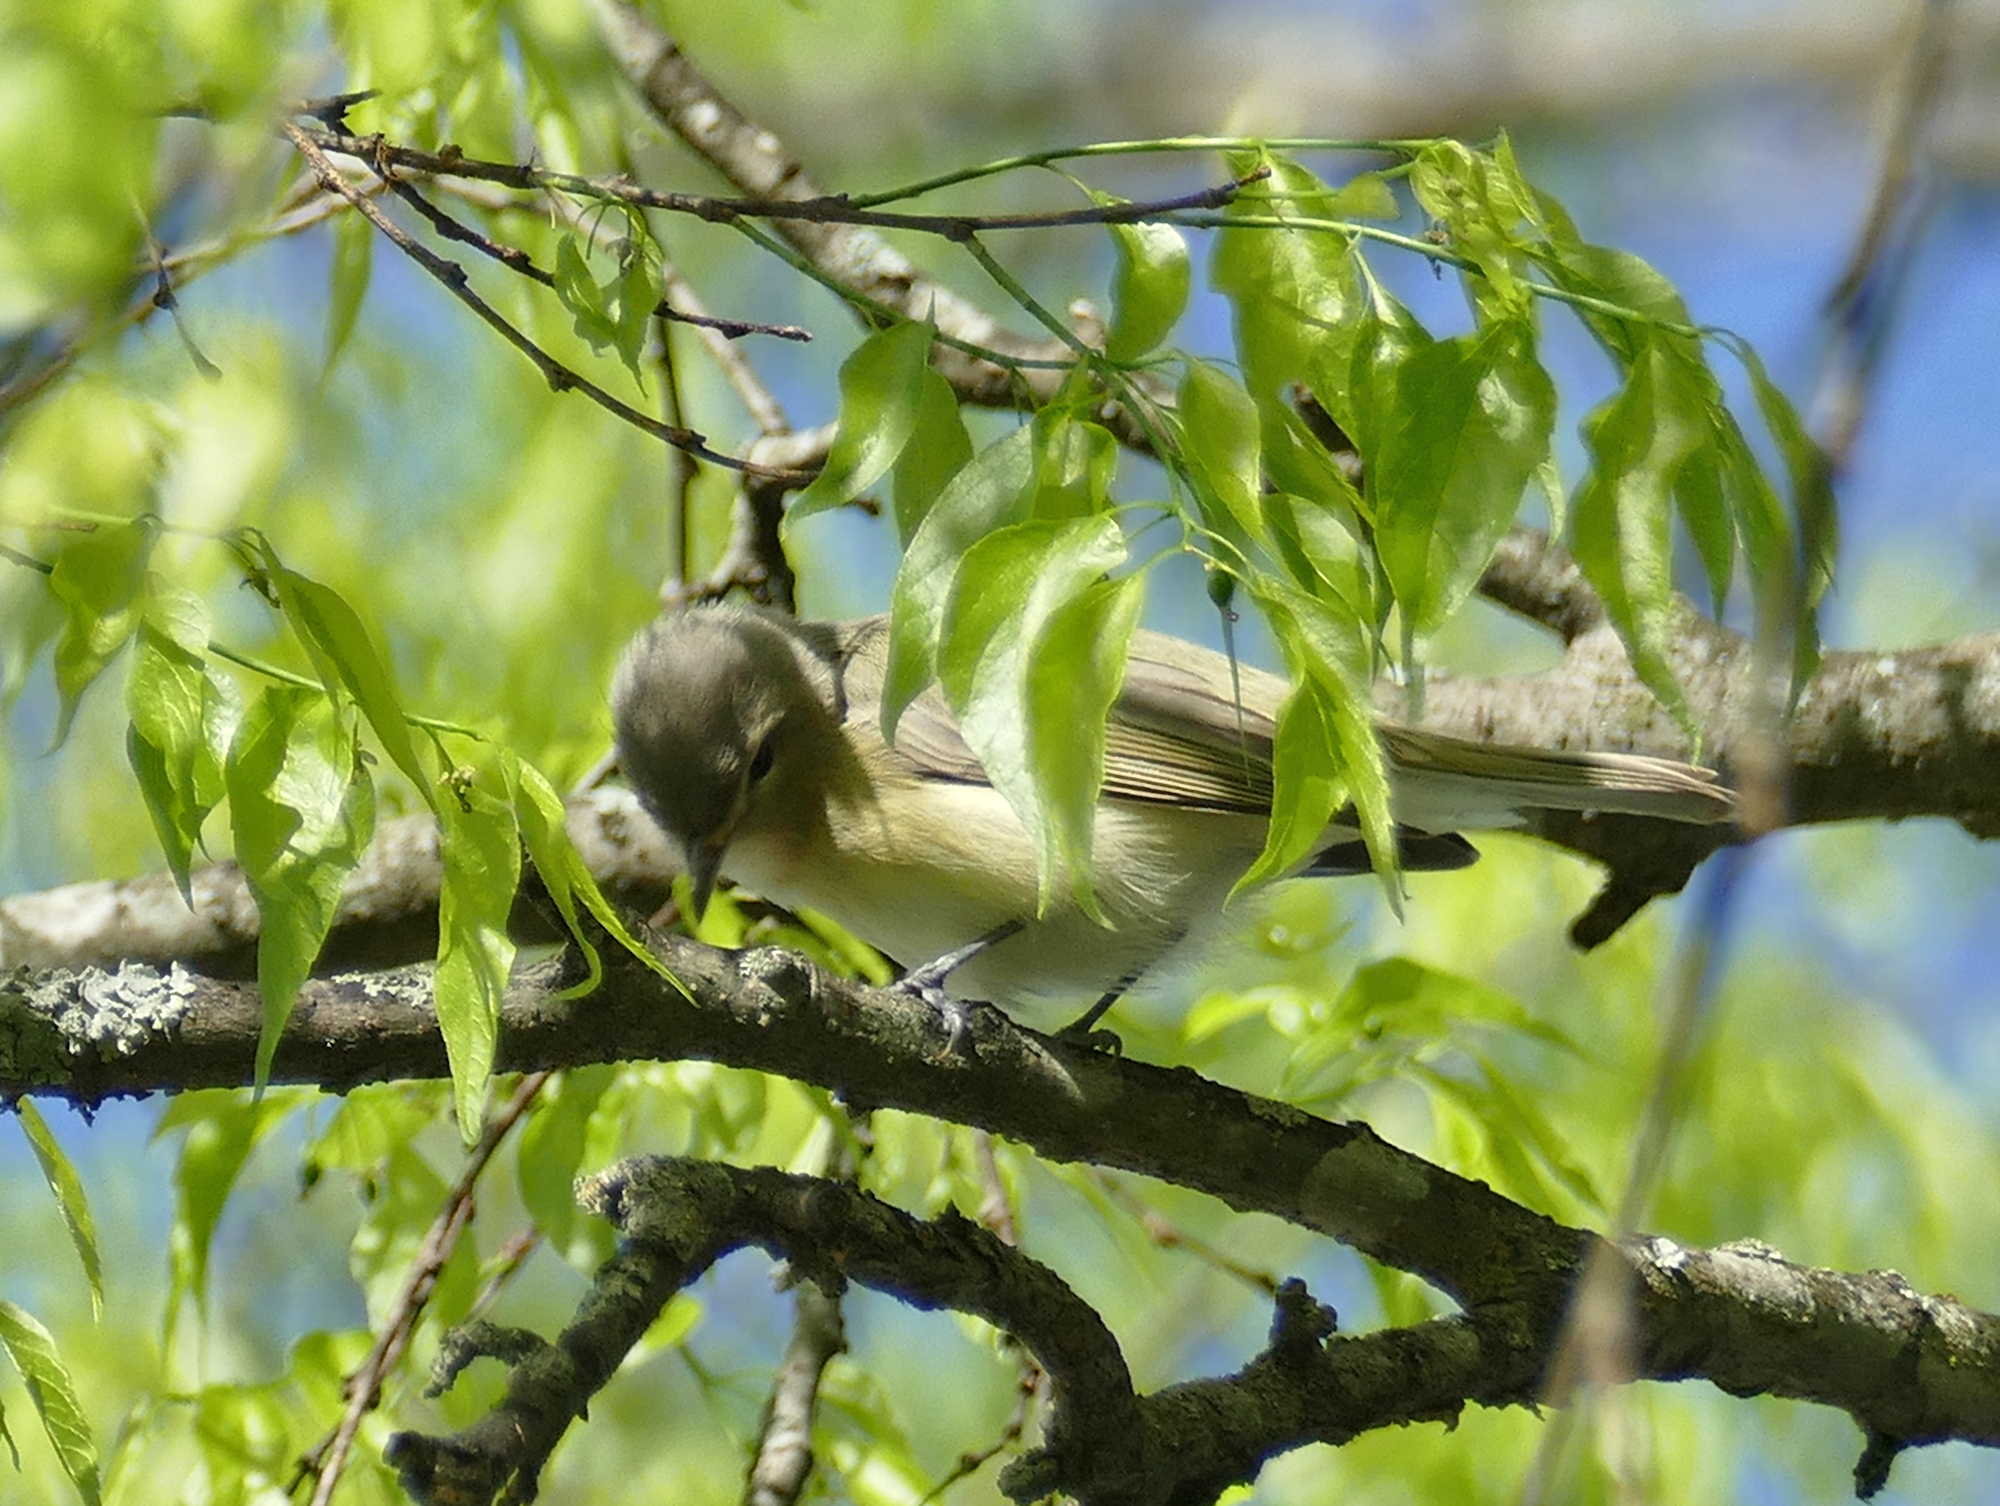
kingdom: Animalia
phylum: Chordata
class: Aves
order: Passeriformes
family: Vireonidae
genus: Vireo
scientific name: Vireo gilvus
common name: Warbling vireo
